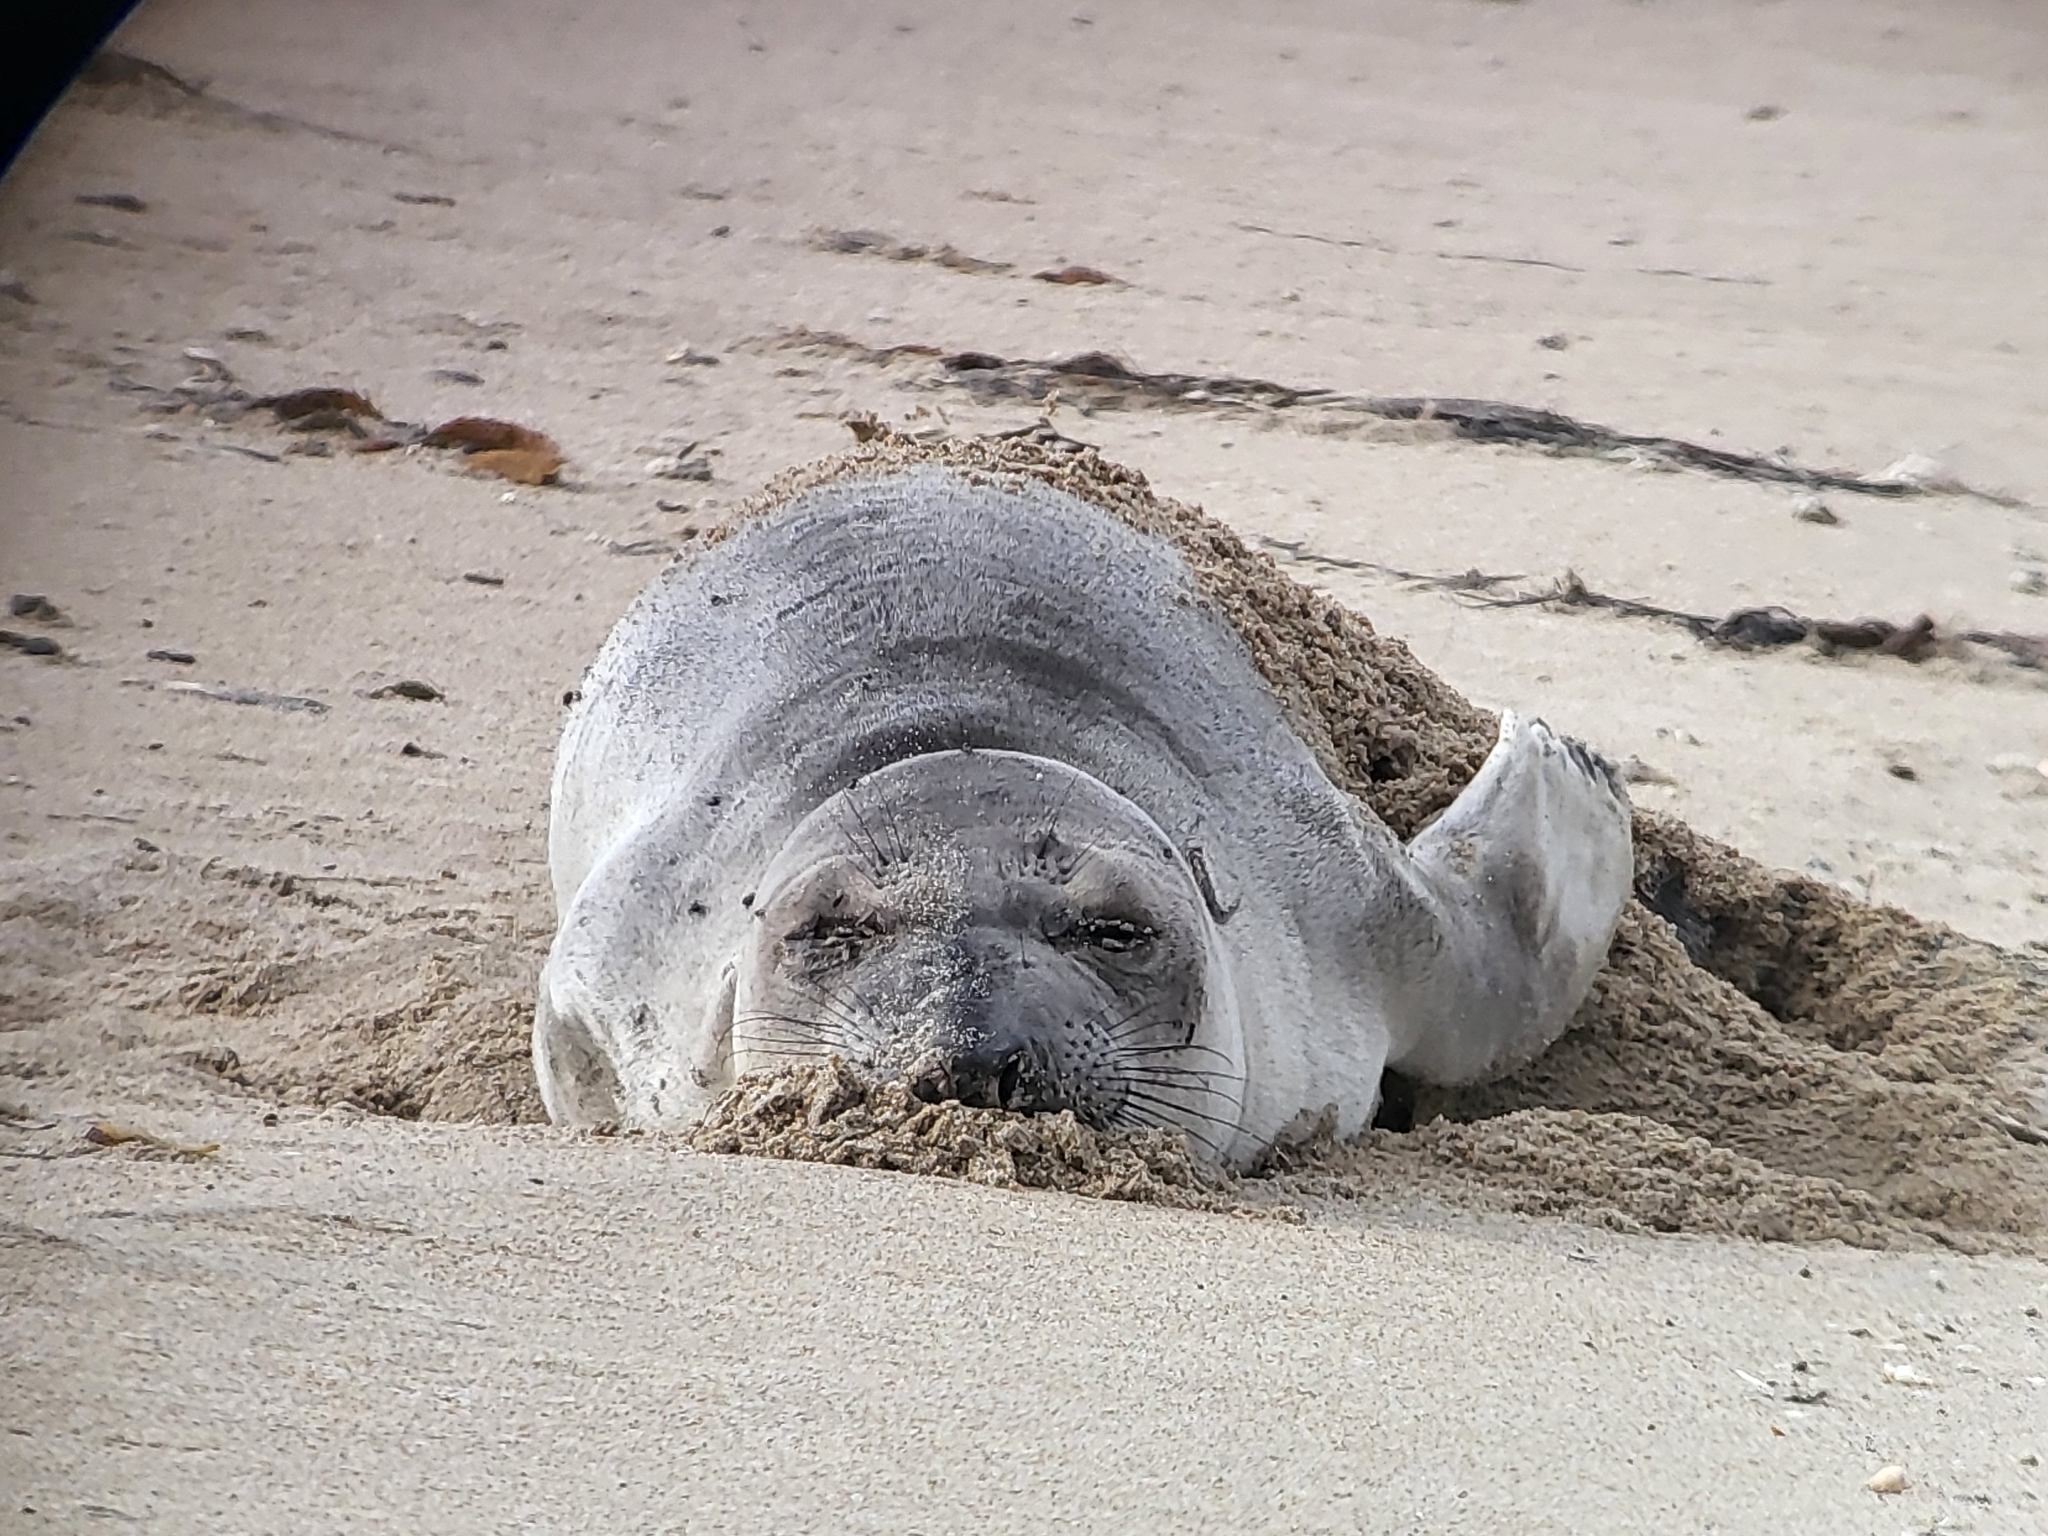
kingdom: Animalia
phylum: Chordata
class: Mammalia
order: Carnivora
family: Phocidae
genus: Mirounga
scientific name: Mirounga angustirostris
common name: Northern elephant seal
